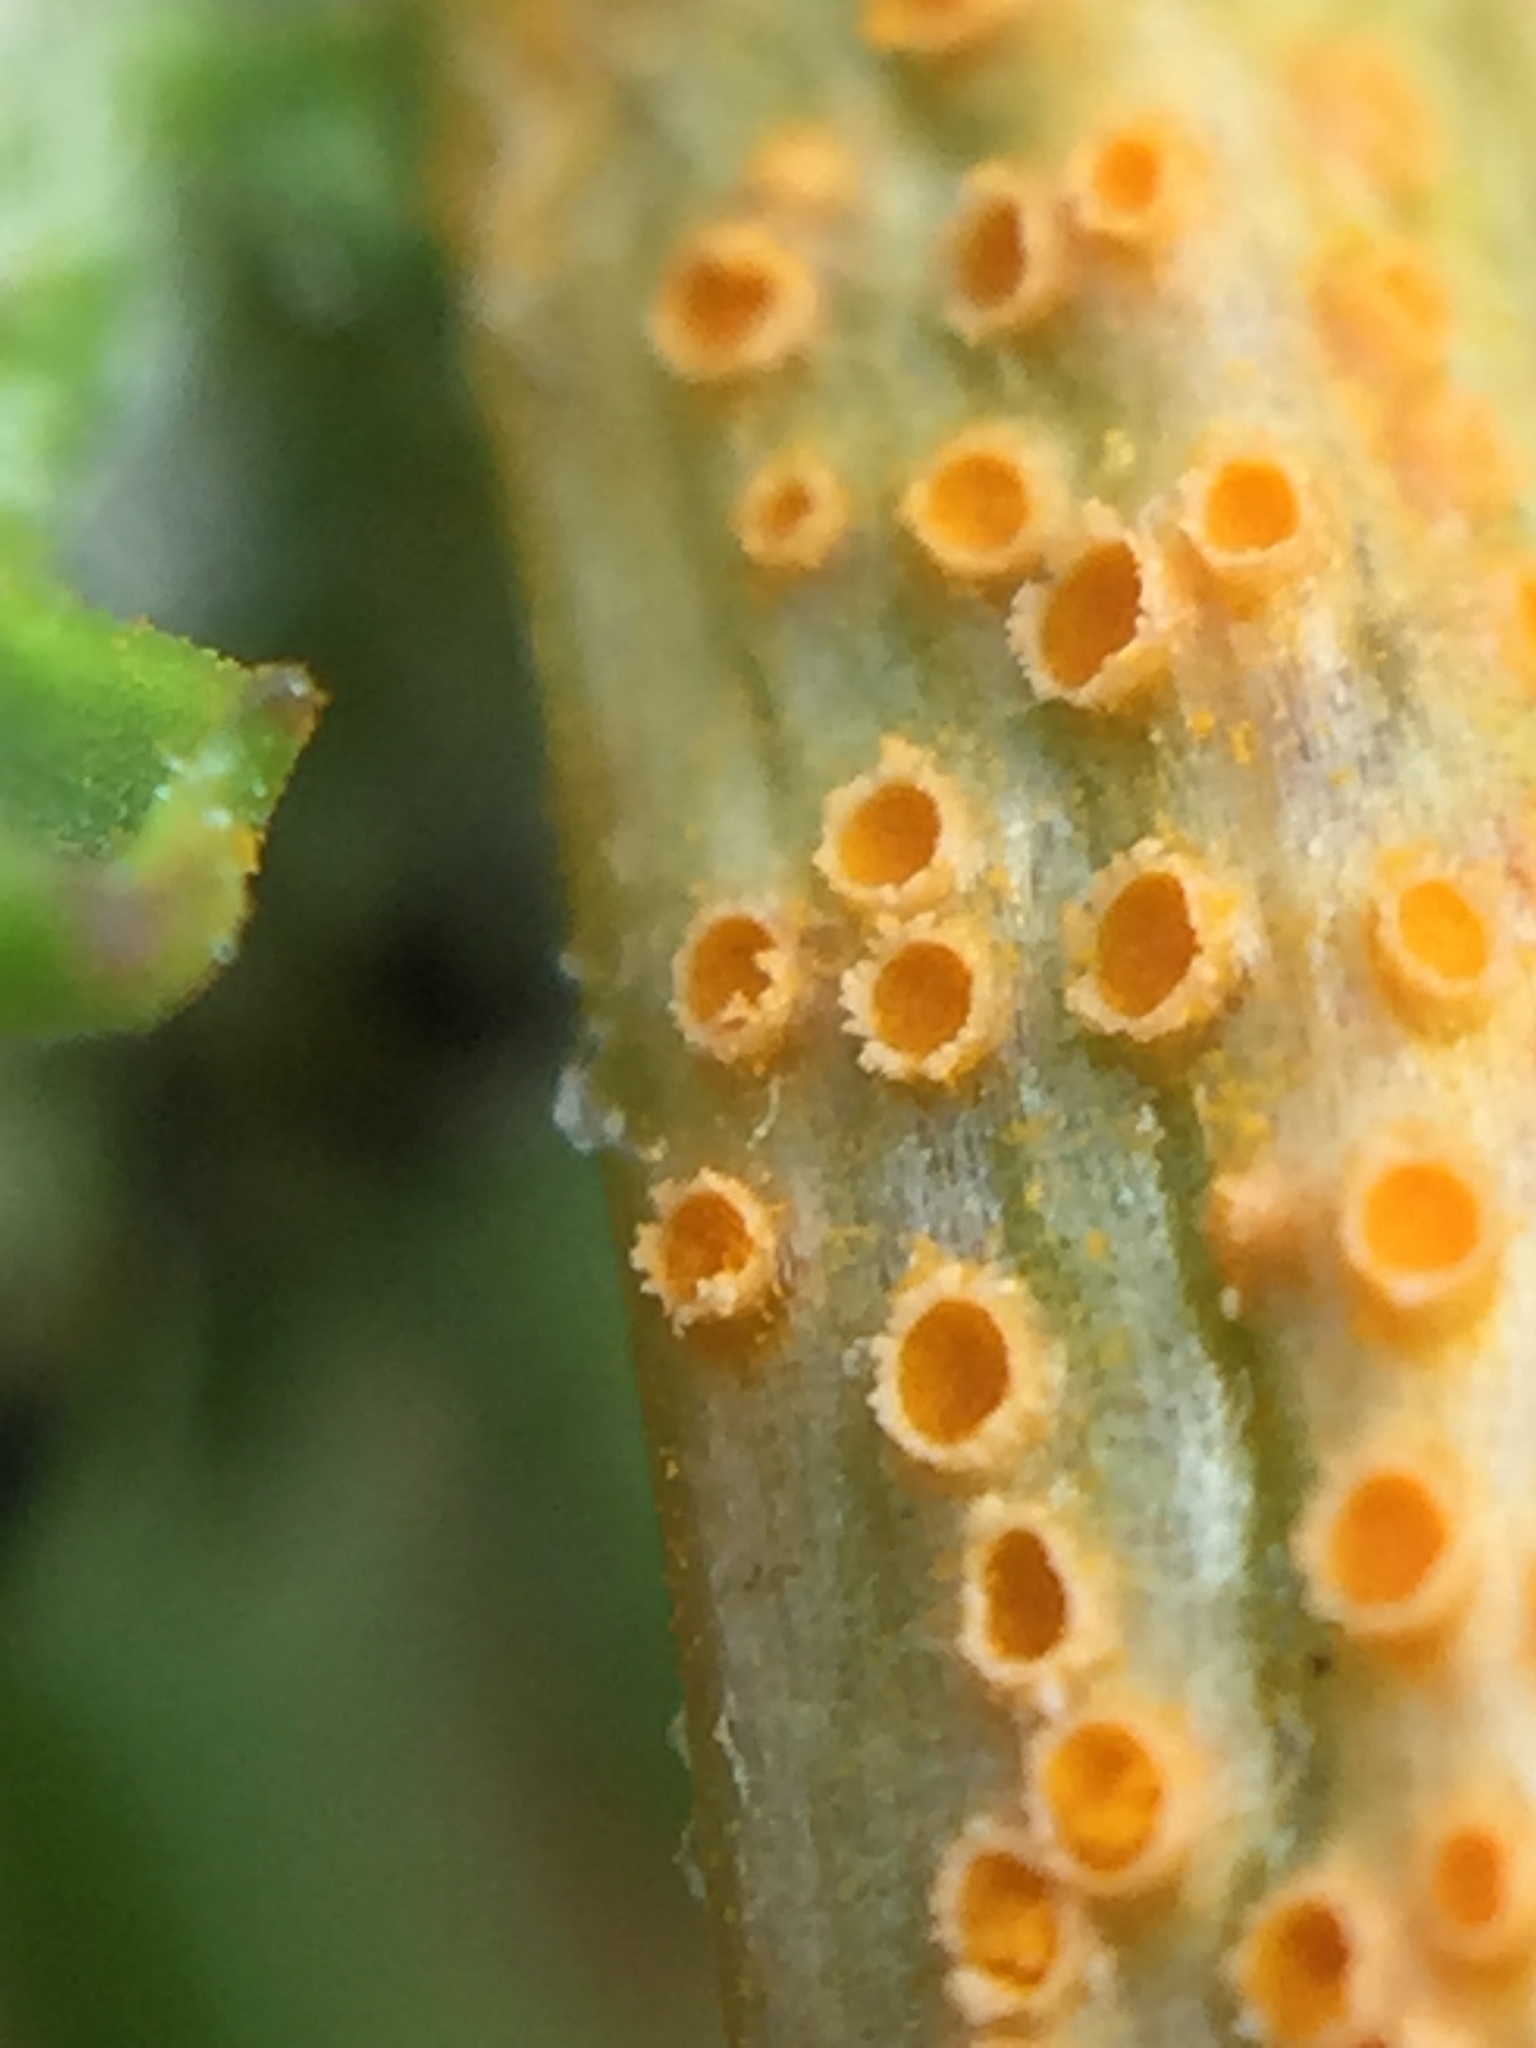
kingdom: Fungi
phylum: Basidiomycota
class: Pucciniomycetes
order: Pucciniales
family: Pucciniaceae
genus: Puccinia
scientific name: Puccinia lagenophorae
